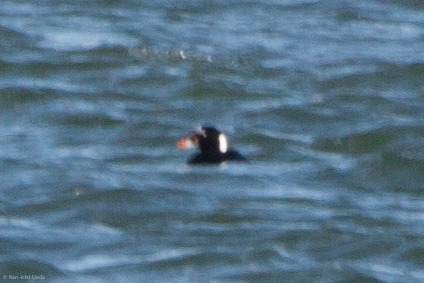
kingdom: Animalia
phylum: Chordata
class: Aves
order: Anseriformes
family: Anatidae
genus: Melanitta
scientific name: Melanitta perspicillata
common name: Surf scoter
